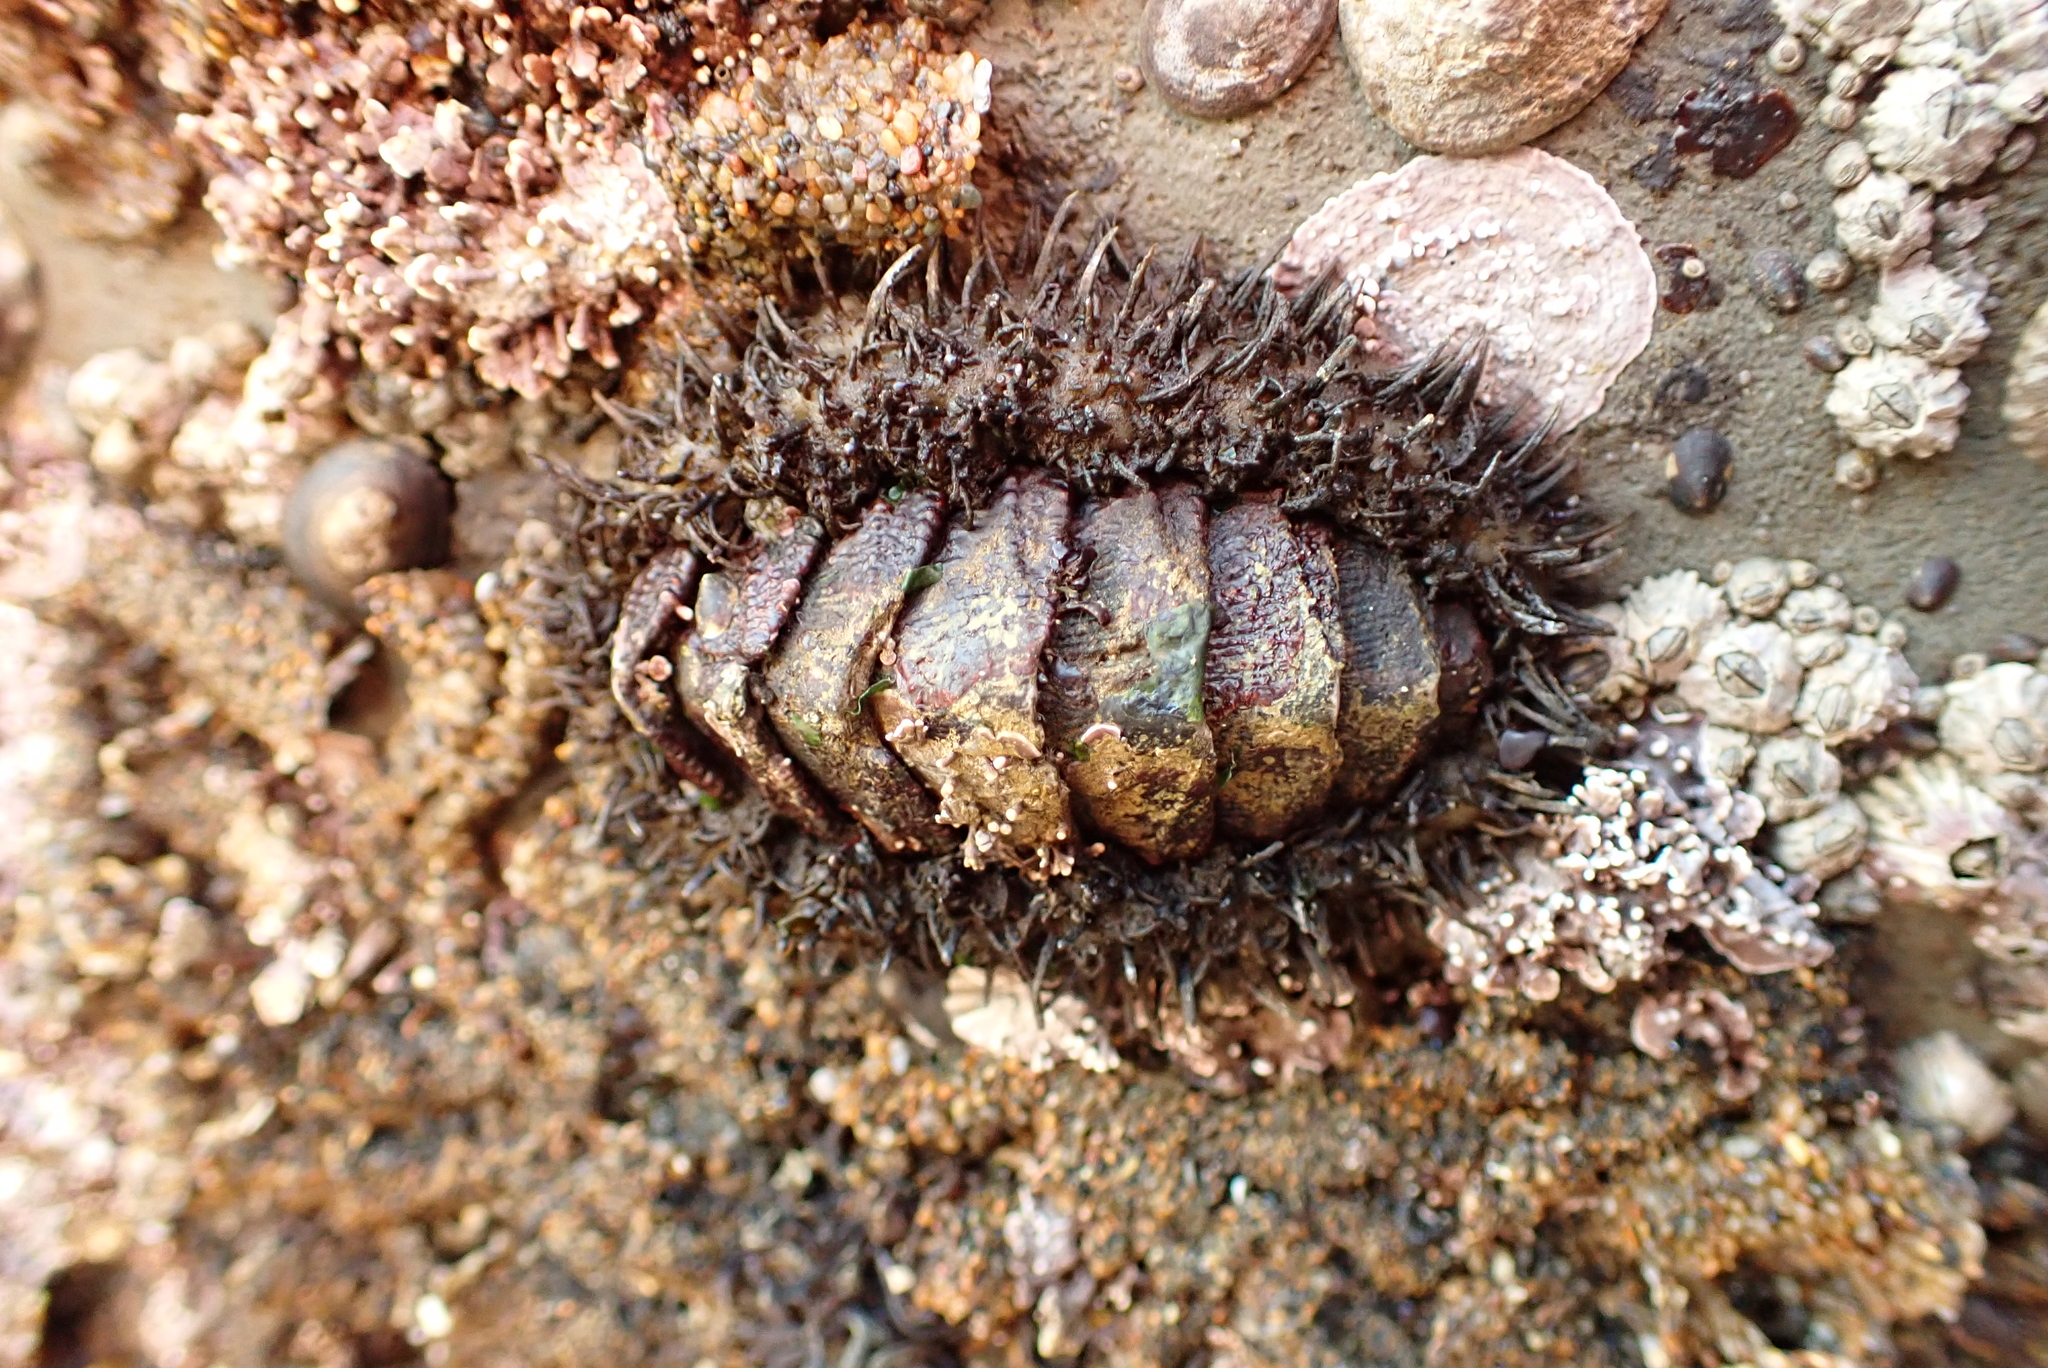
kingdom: Animalia
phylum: Mollusca
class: Polyplacophora
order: Chitonida
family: Mopaliidae
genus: Mopalia
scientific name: Mopalia muscosa
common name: Mossy chiton
